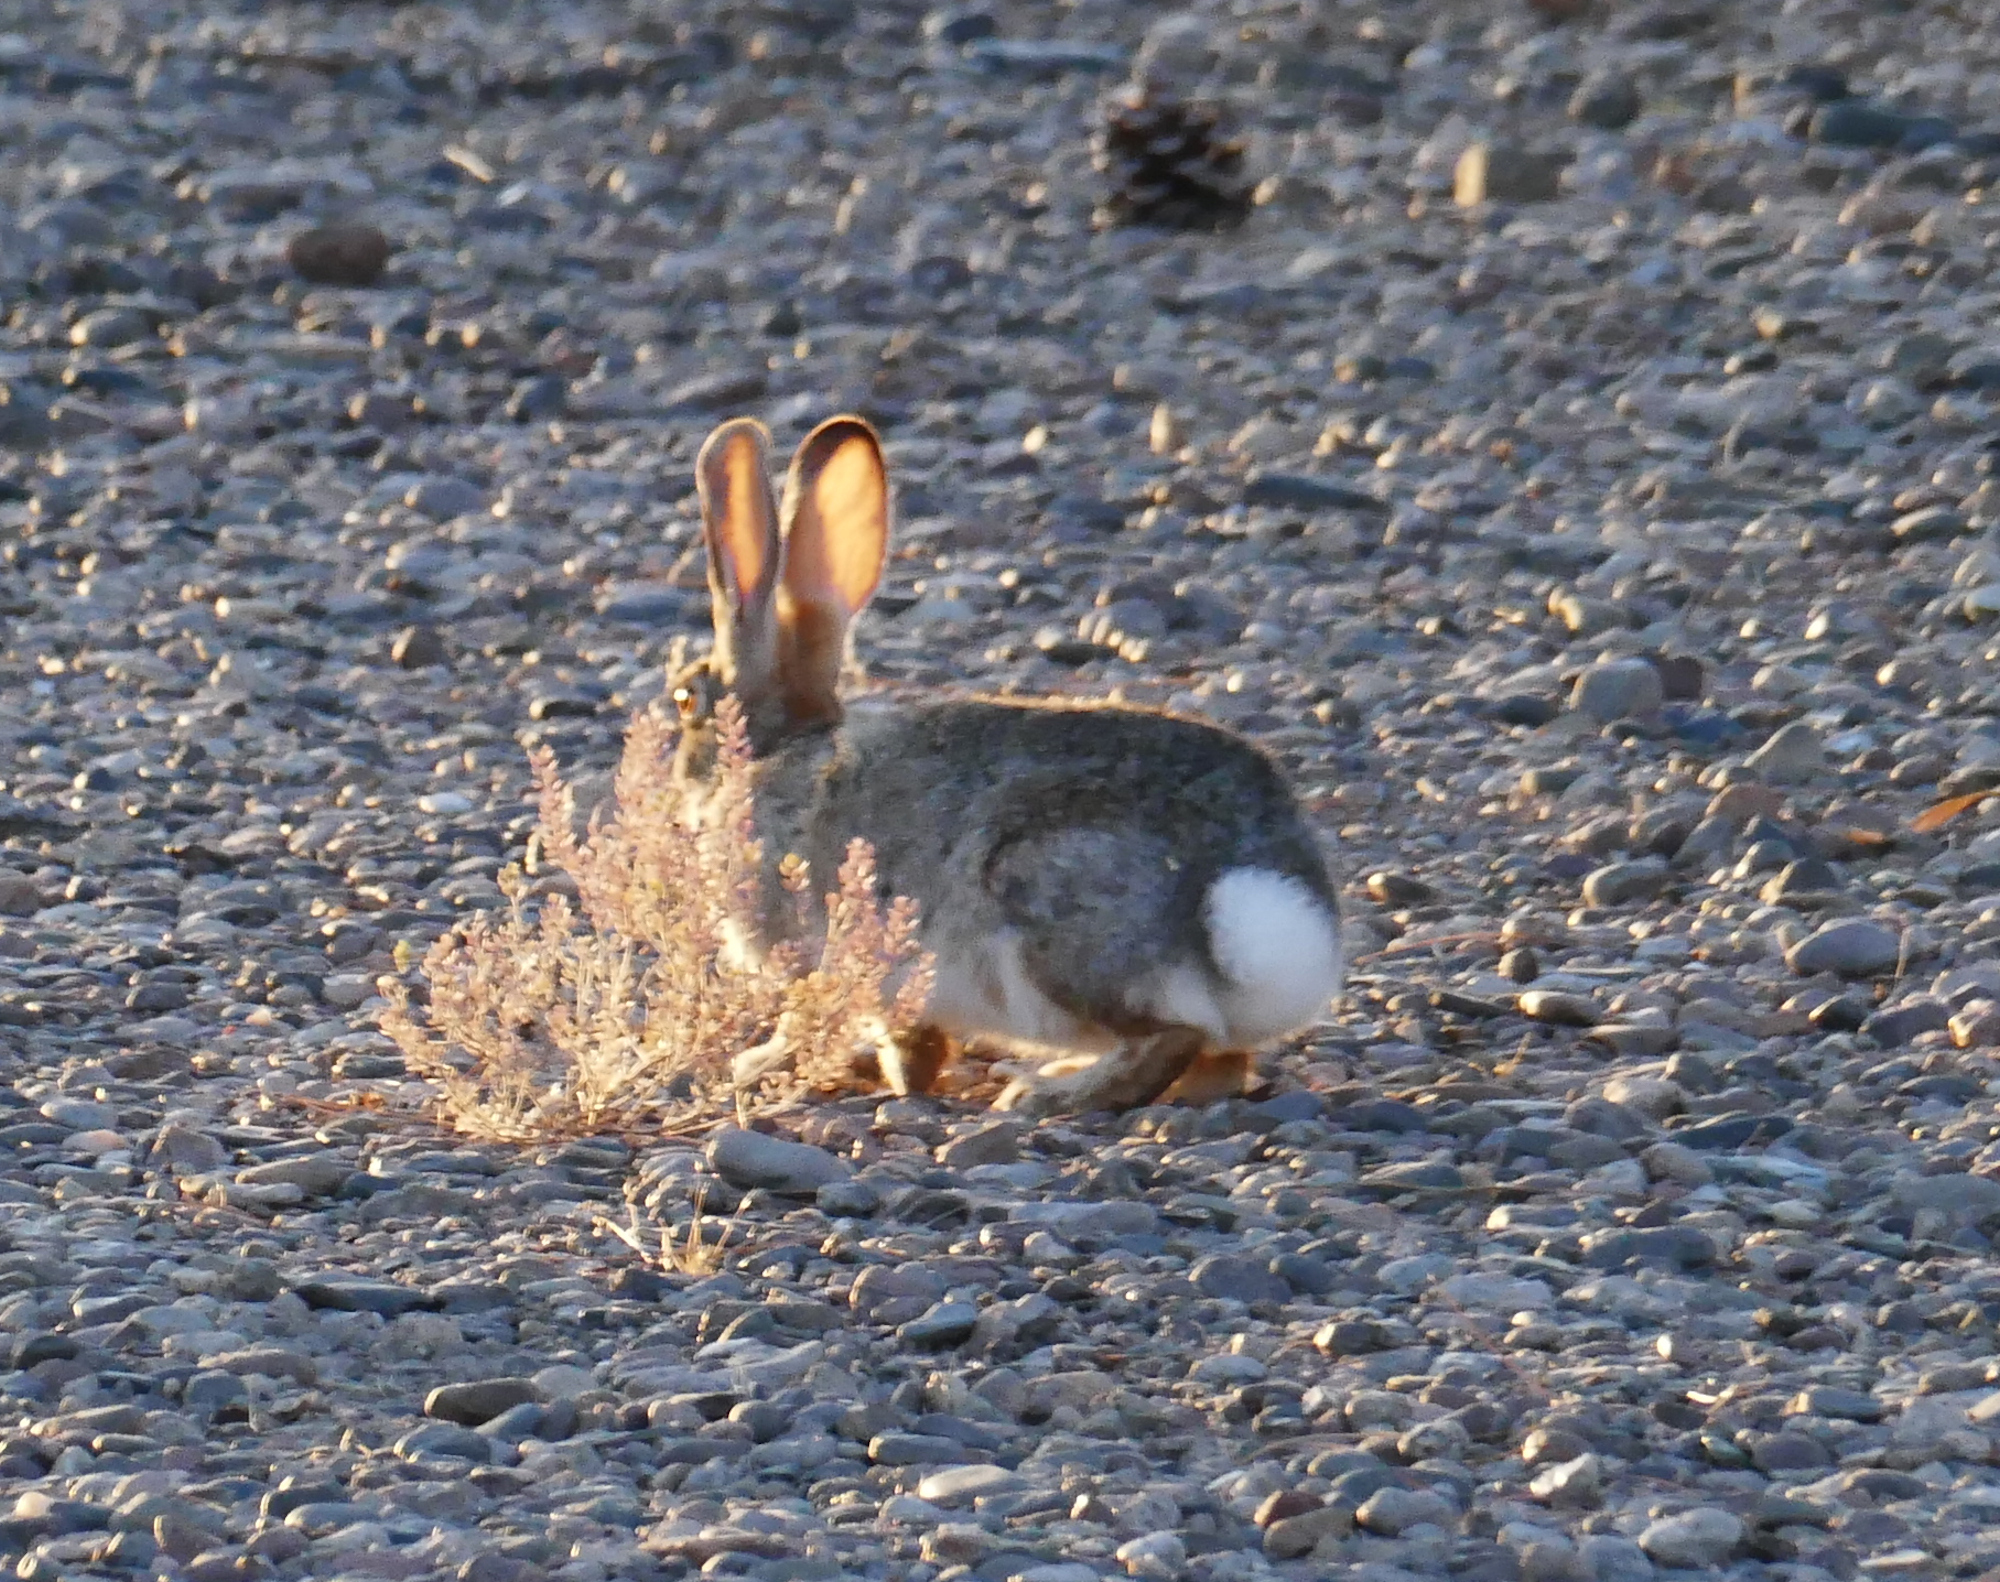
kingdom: Animalia
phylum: Chordata
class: Mammalia
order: Lagomorpha
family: Leporidae
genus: Sylvilagus
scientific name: Sylvilagus audubonii
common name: Desert cottontail
